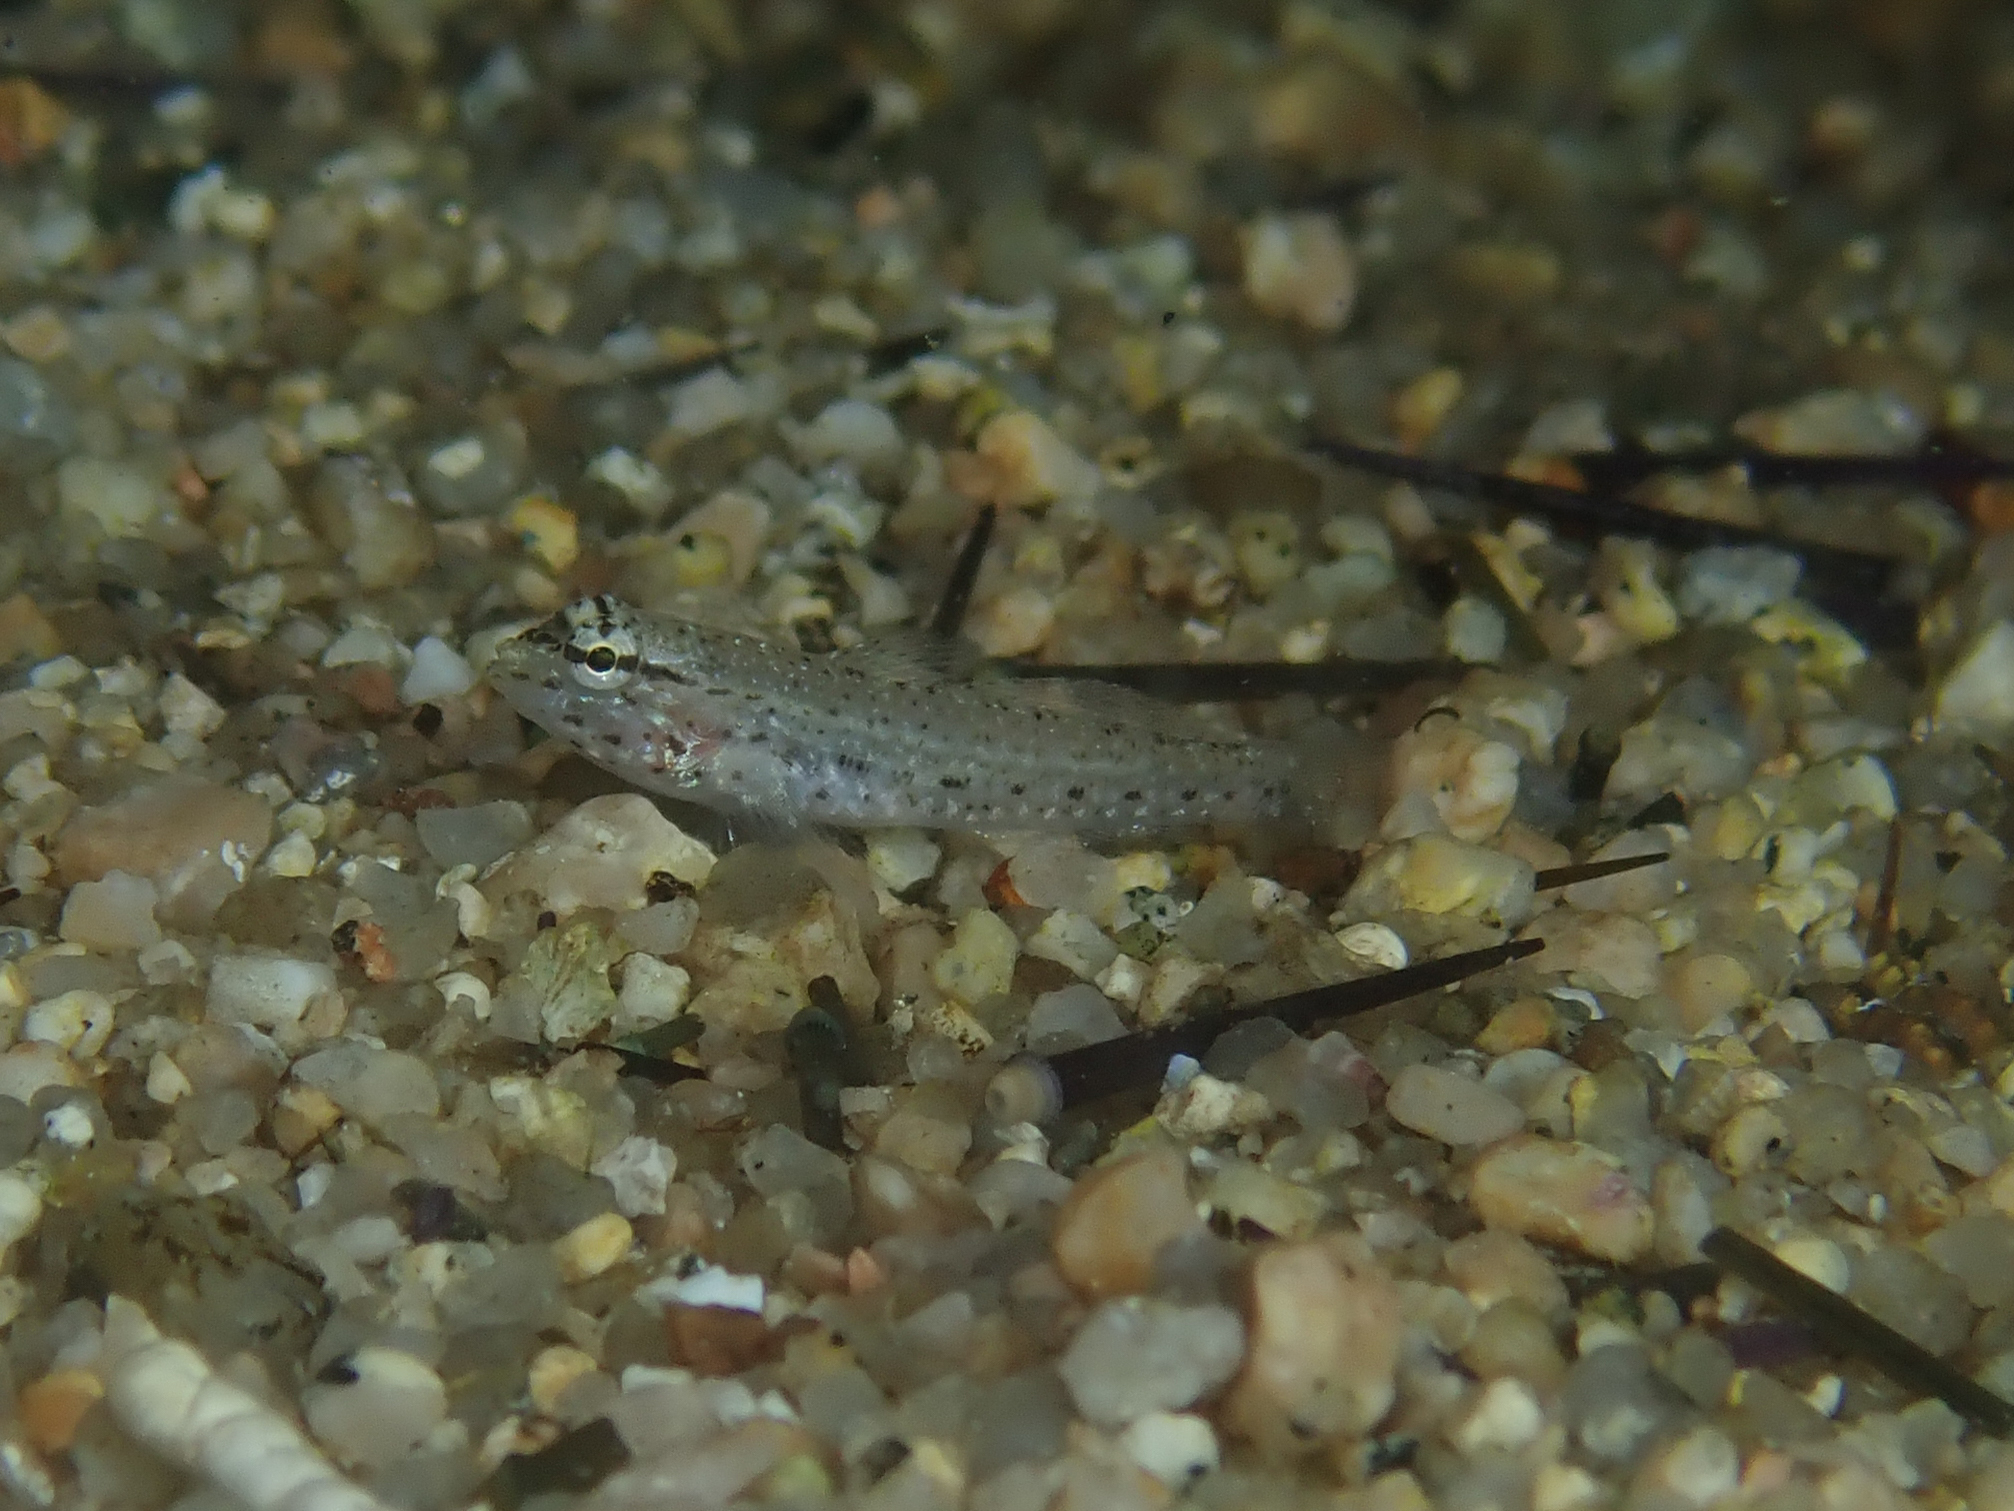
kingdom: Animalia
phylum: Chordata
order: Perciformes
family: Gobiidae
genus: Gobius
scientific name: Gobius incognitus
